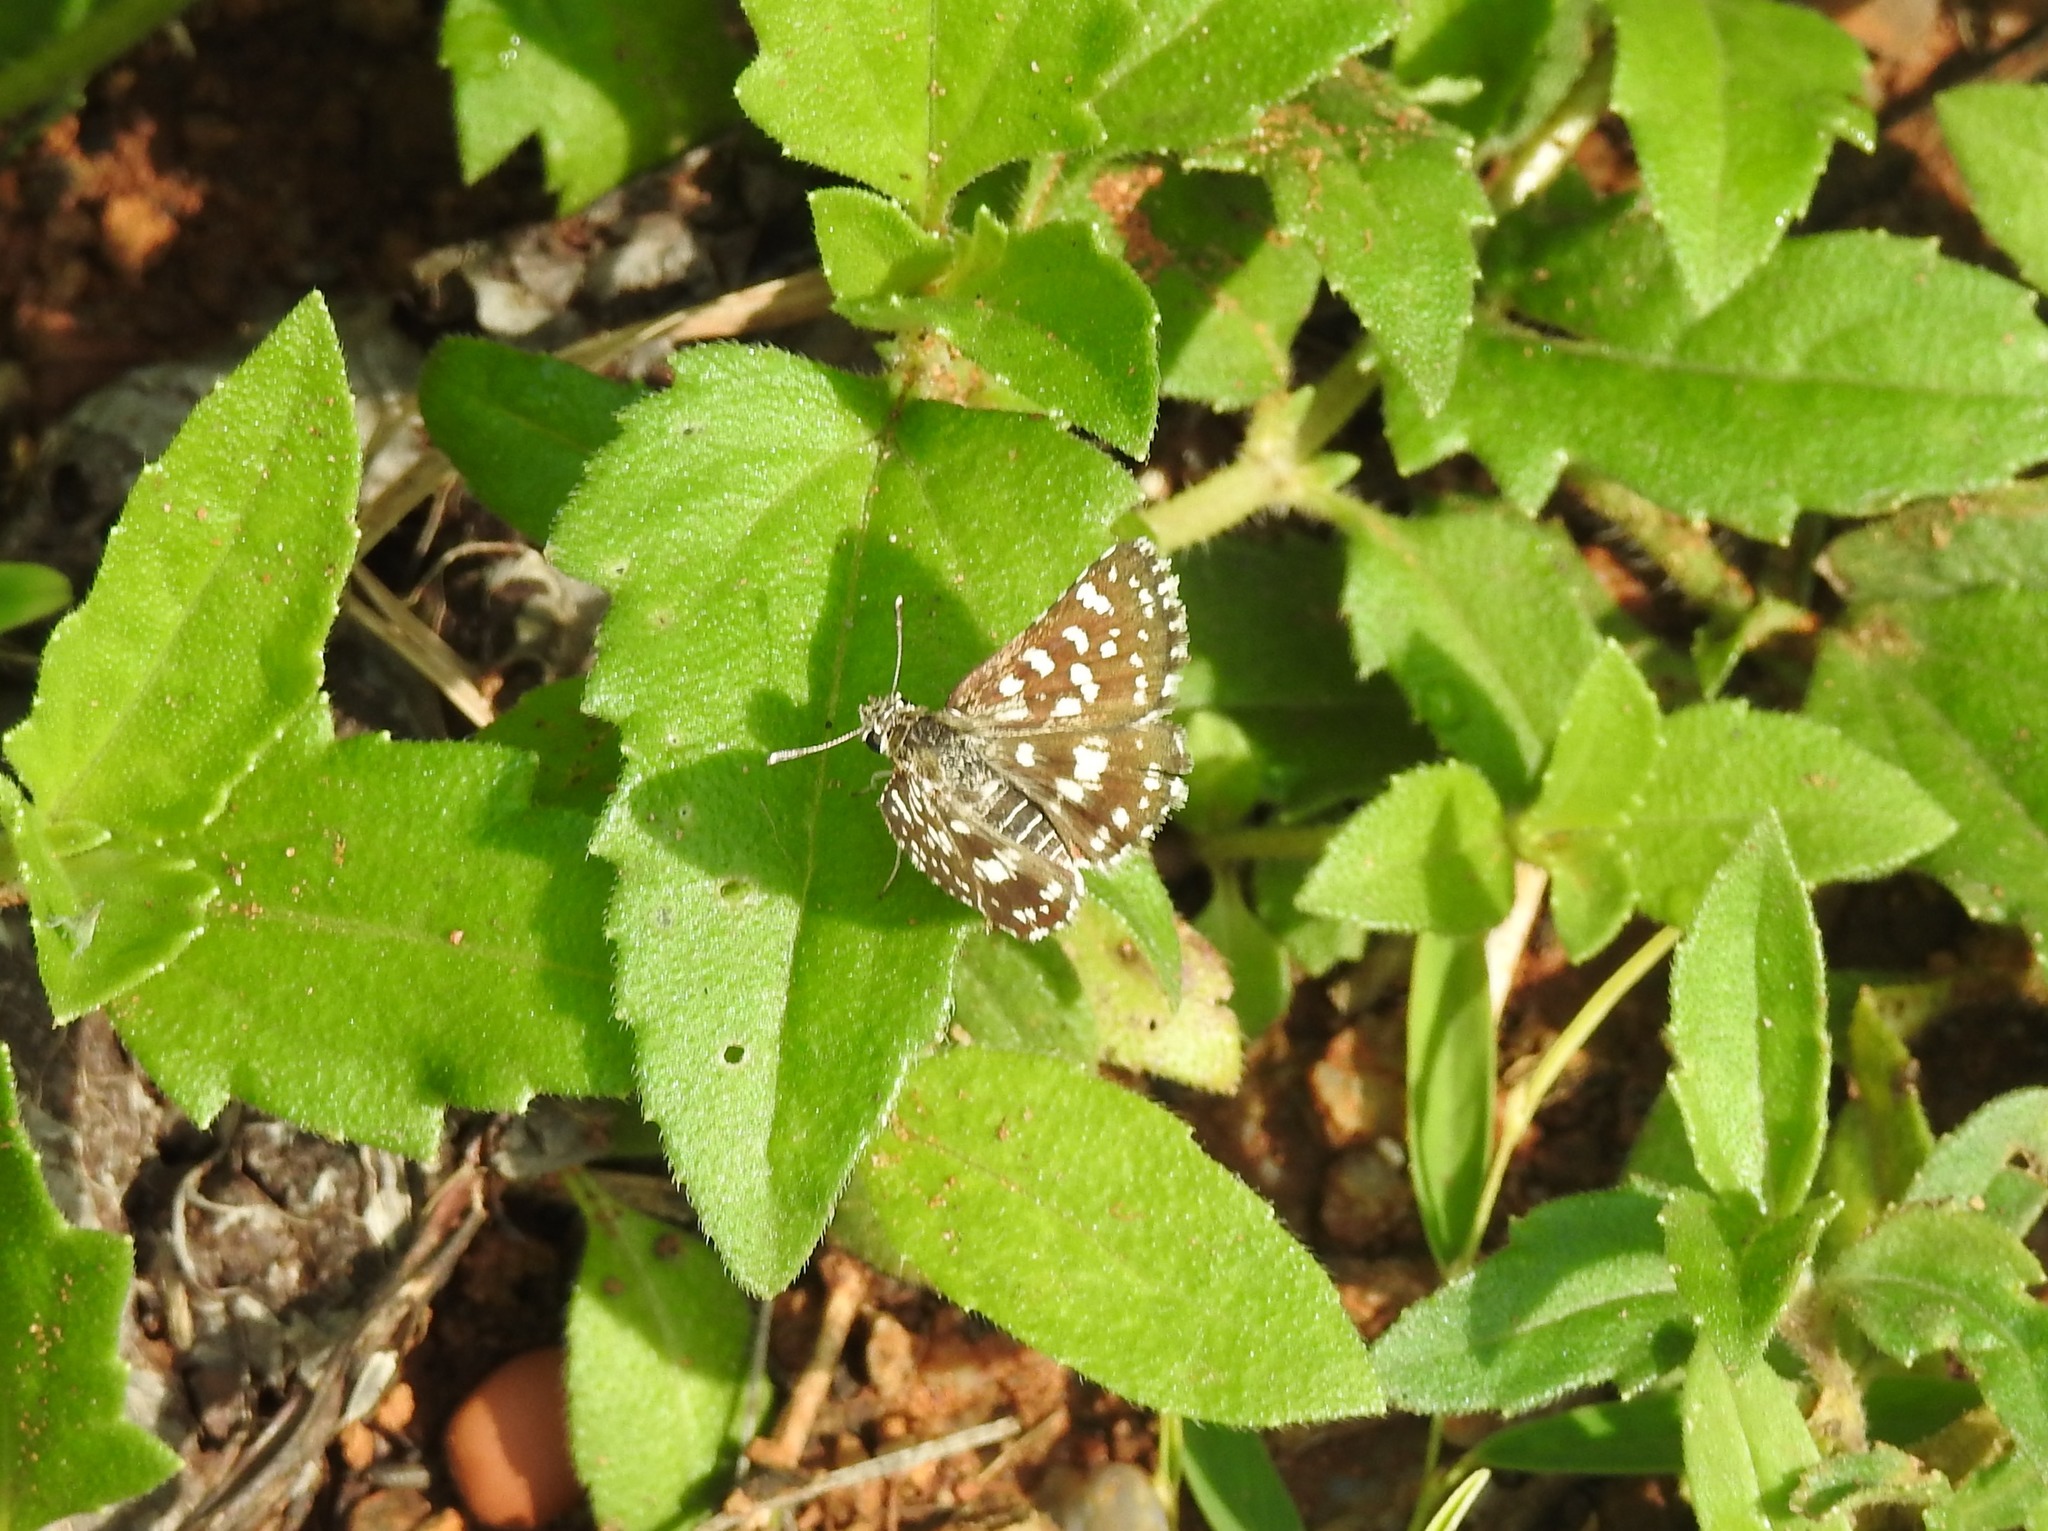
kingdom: Animalia
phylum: Arthropoda
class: Insecta
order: Lepidoptera
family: Hesperiidae
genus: Spialia
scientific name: Spialia galba
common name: Indian skipper
